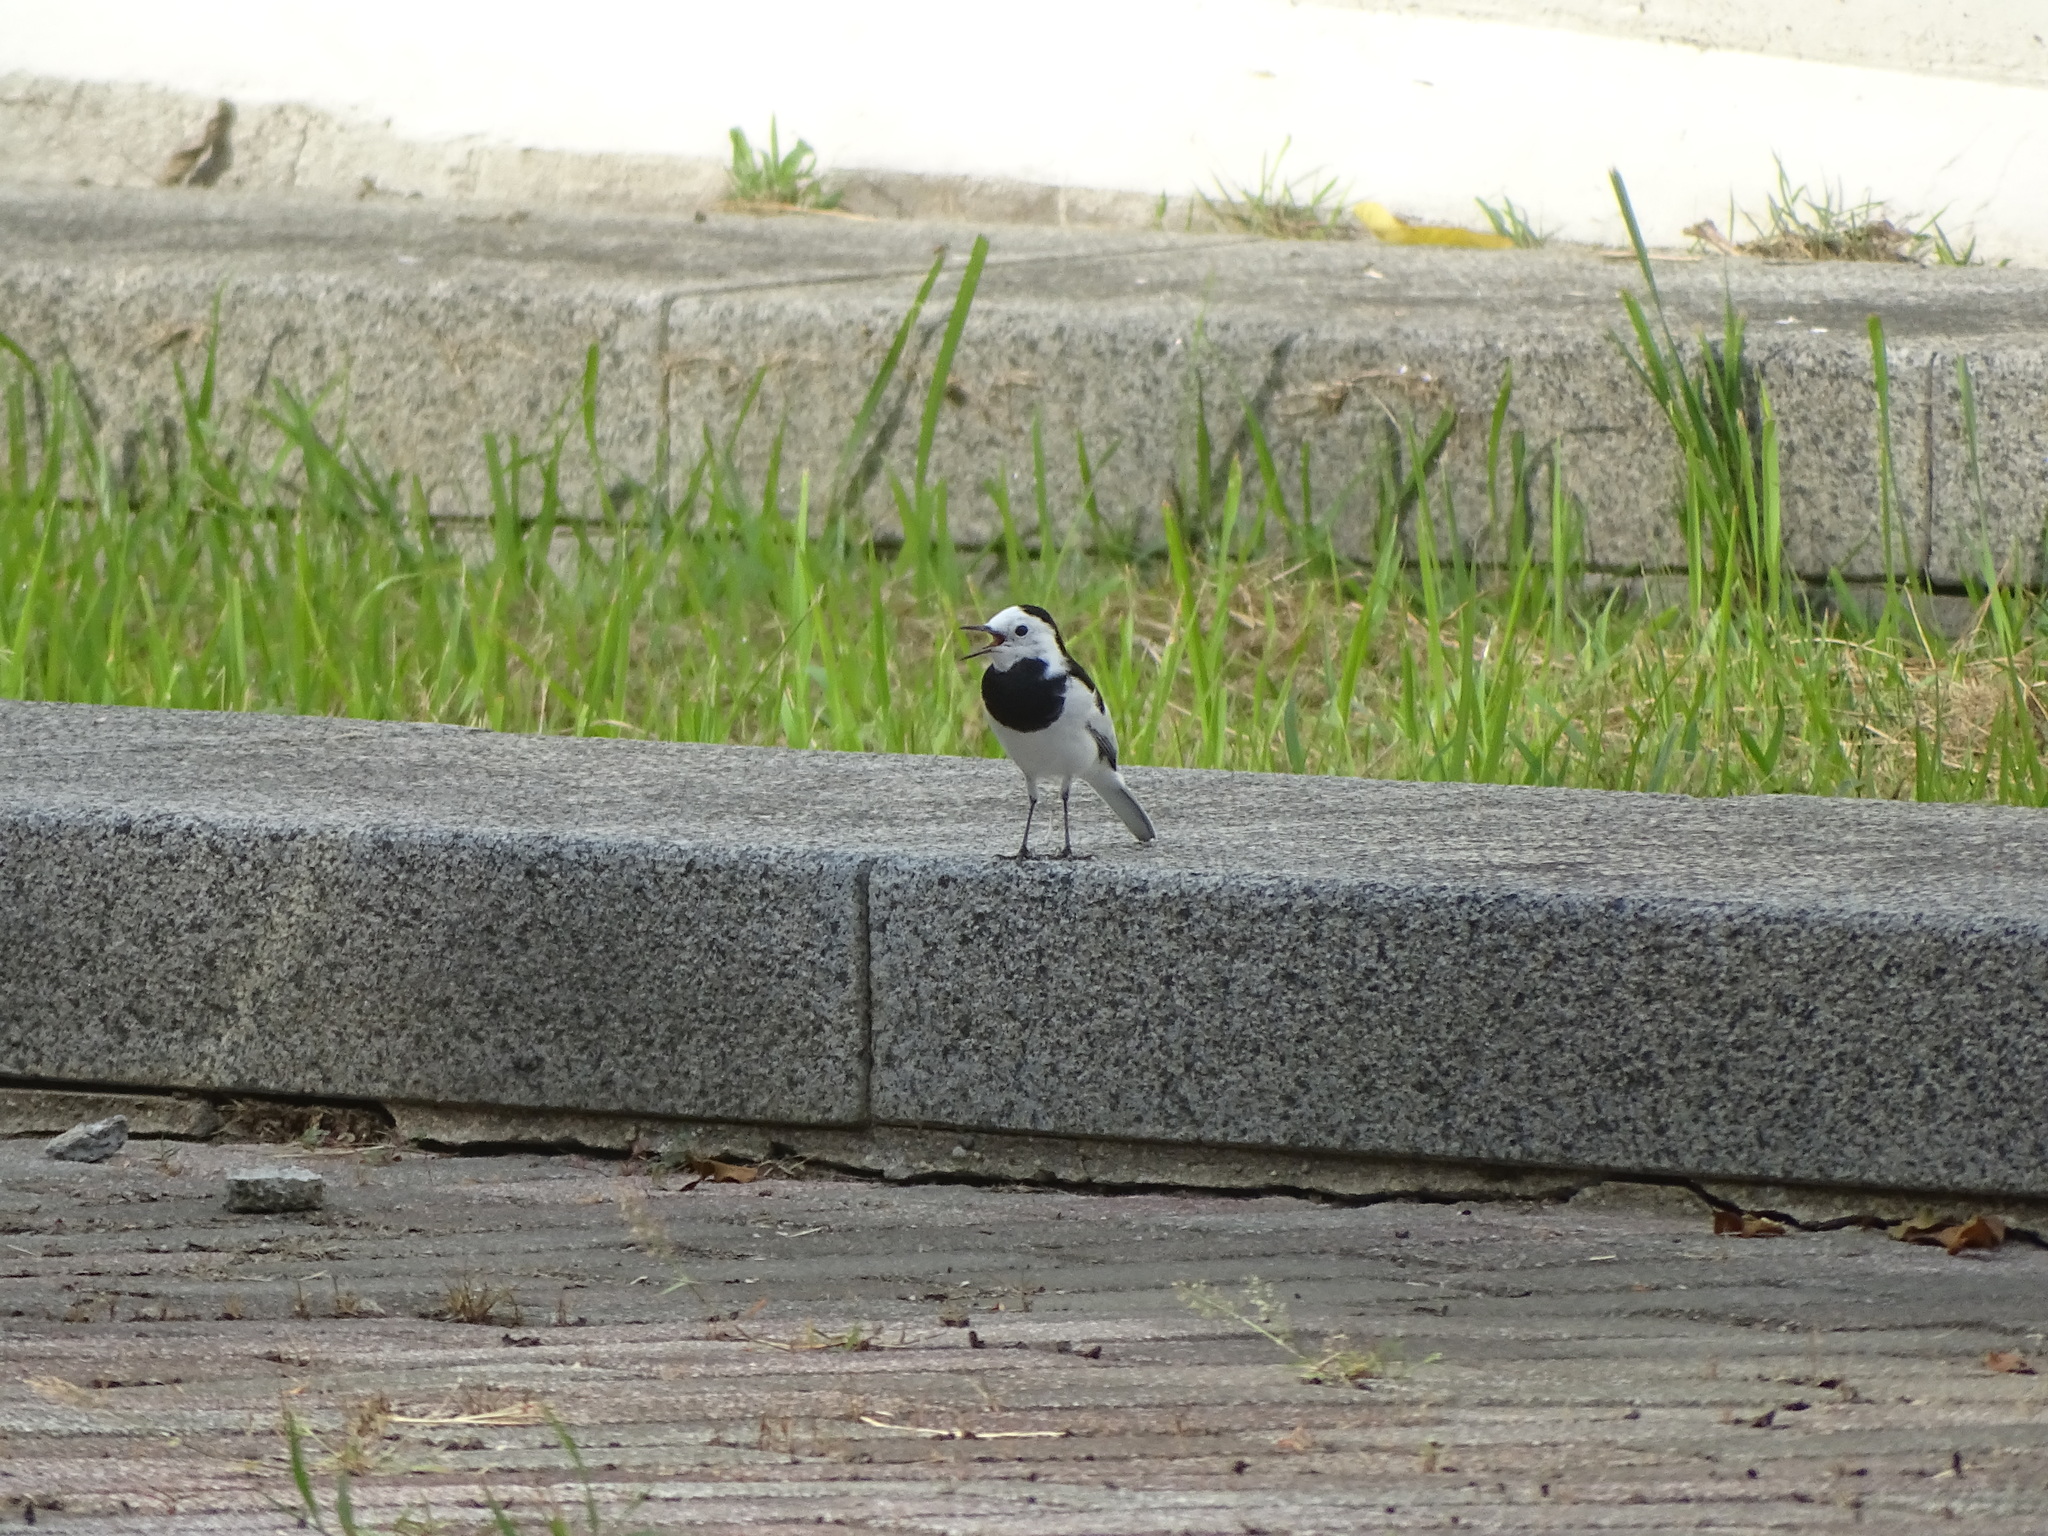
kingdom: Animalia
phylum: Chordata
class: Aves
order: Passeriformes
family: Motacillidae
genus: Motacilla
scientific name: Motacilla alba
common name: White wagtail
